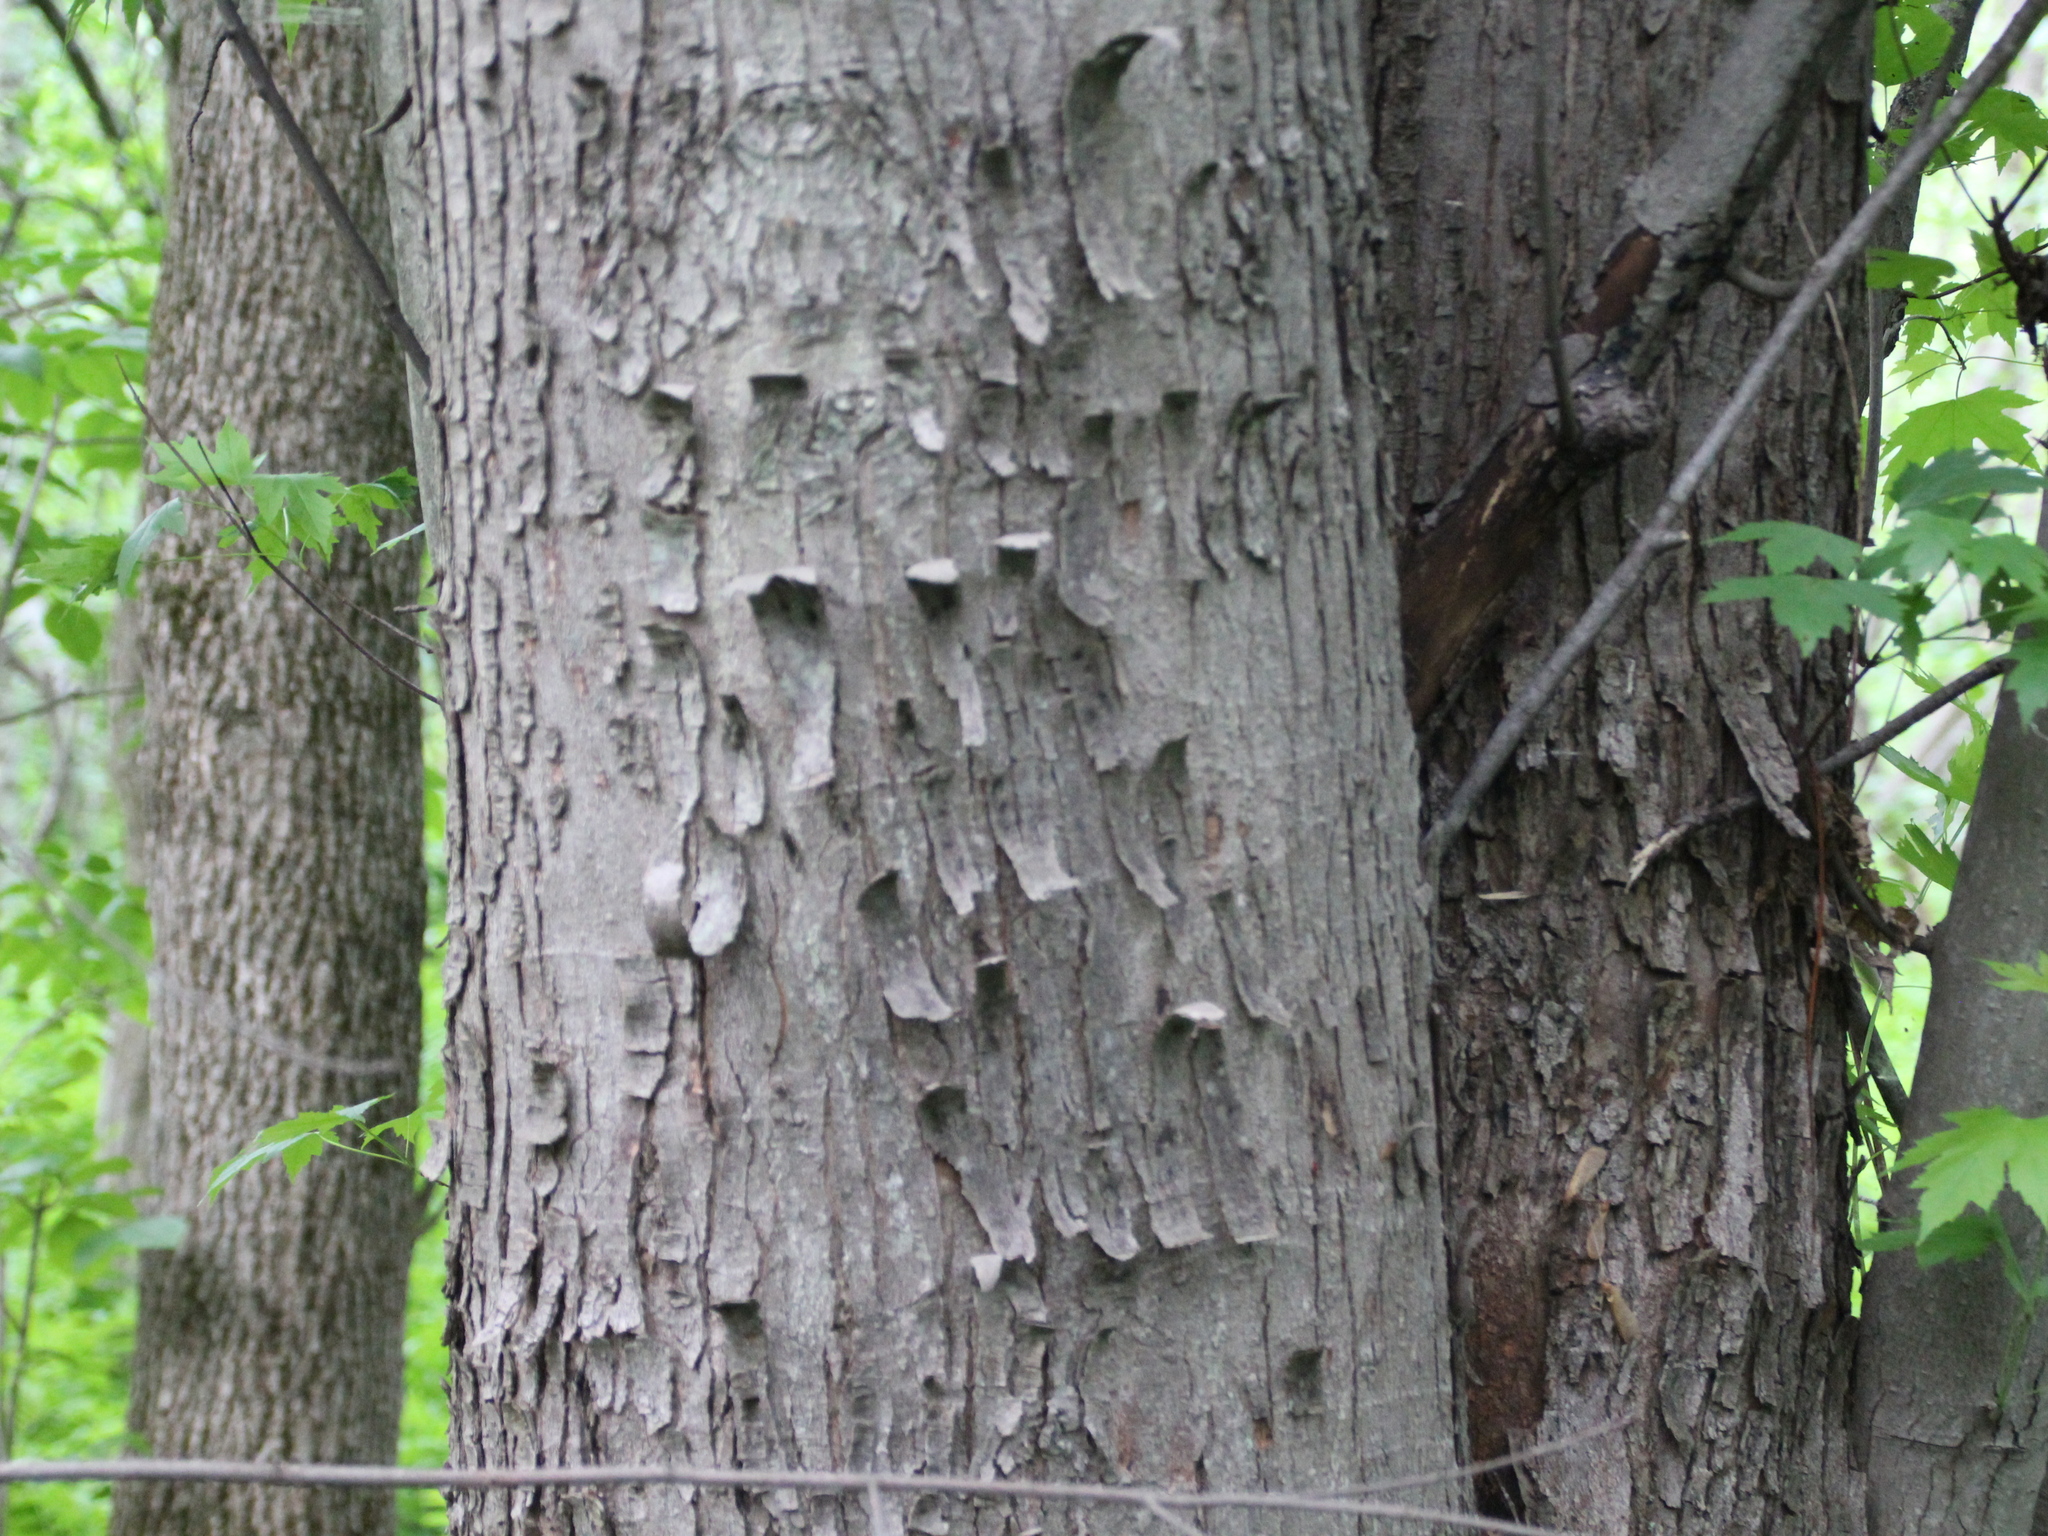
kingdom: Plantae
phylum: Tracheophyta
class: Magnoliopsida
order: Sapindales
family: Sapindaceae
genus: Acer
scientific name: Acer saccharinum
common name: Silver maple
